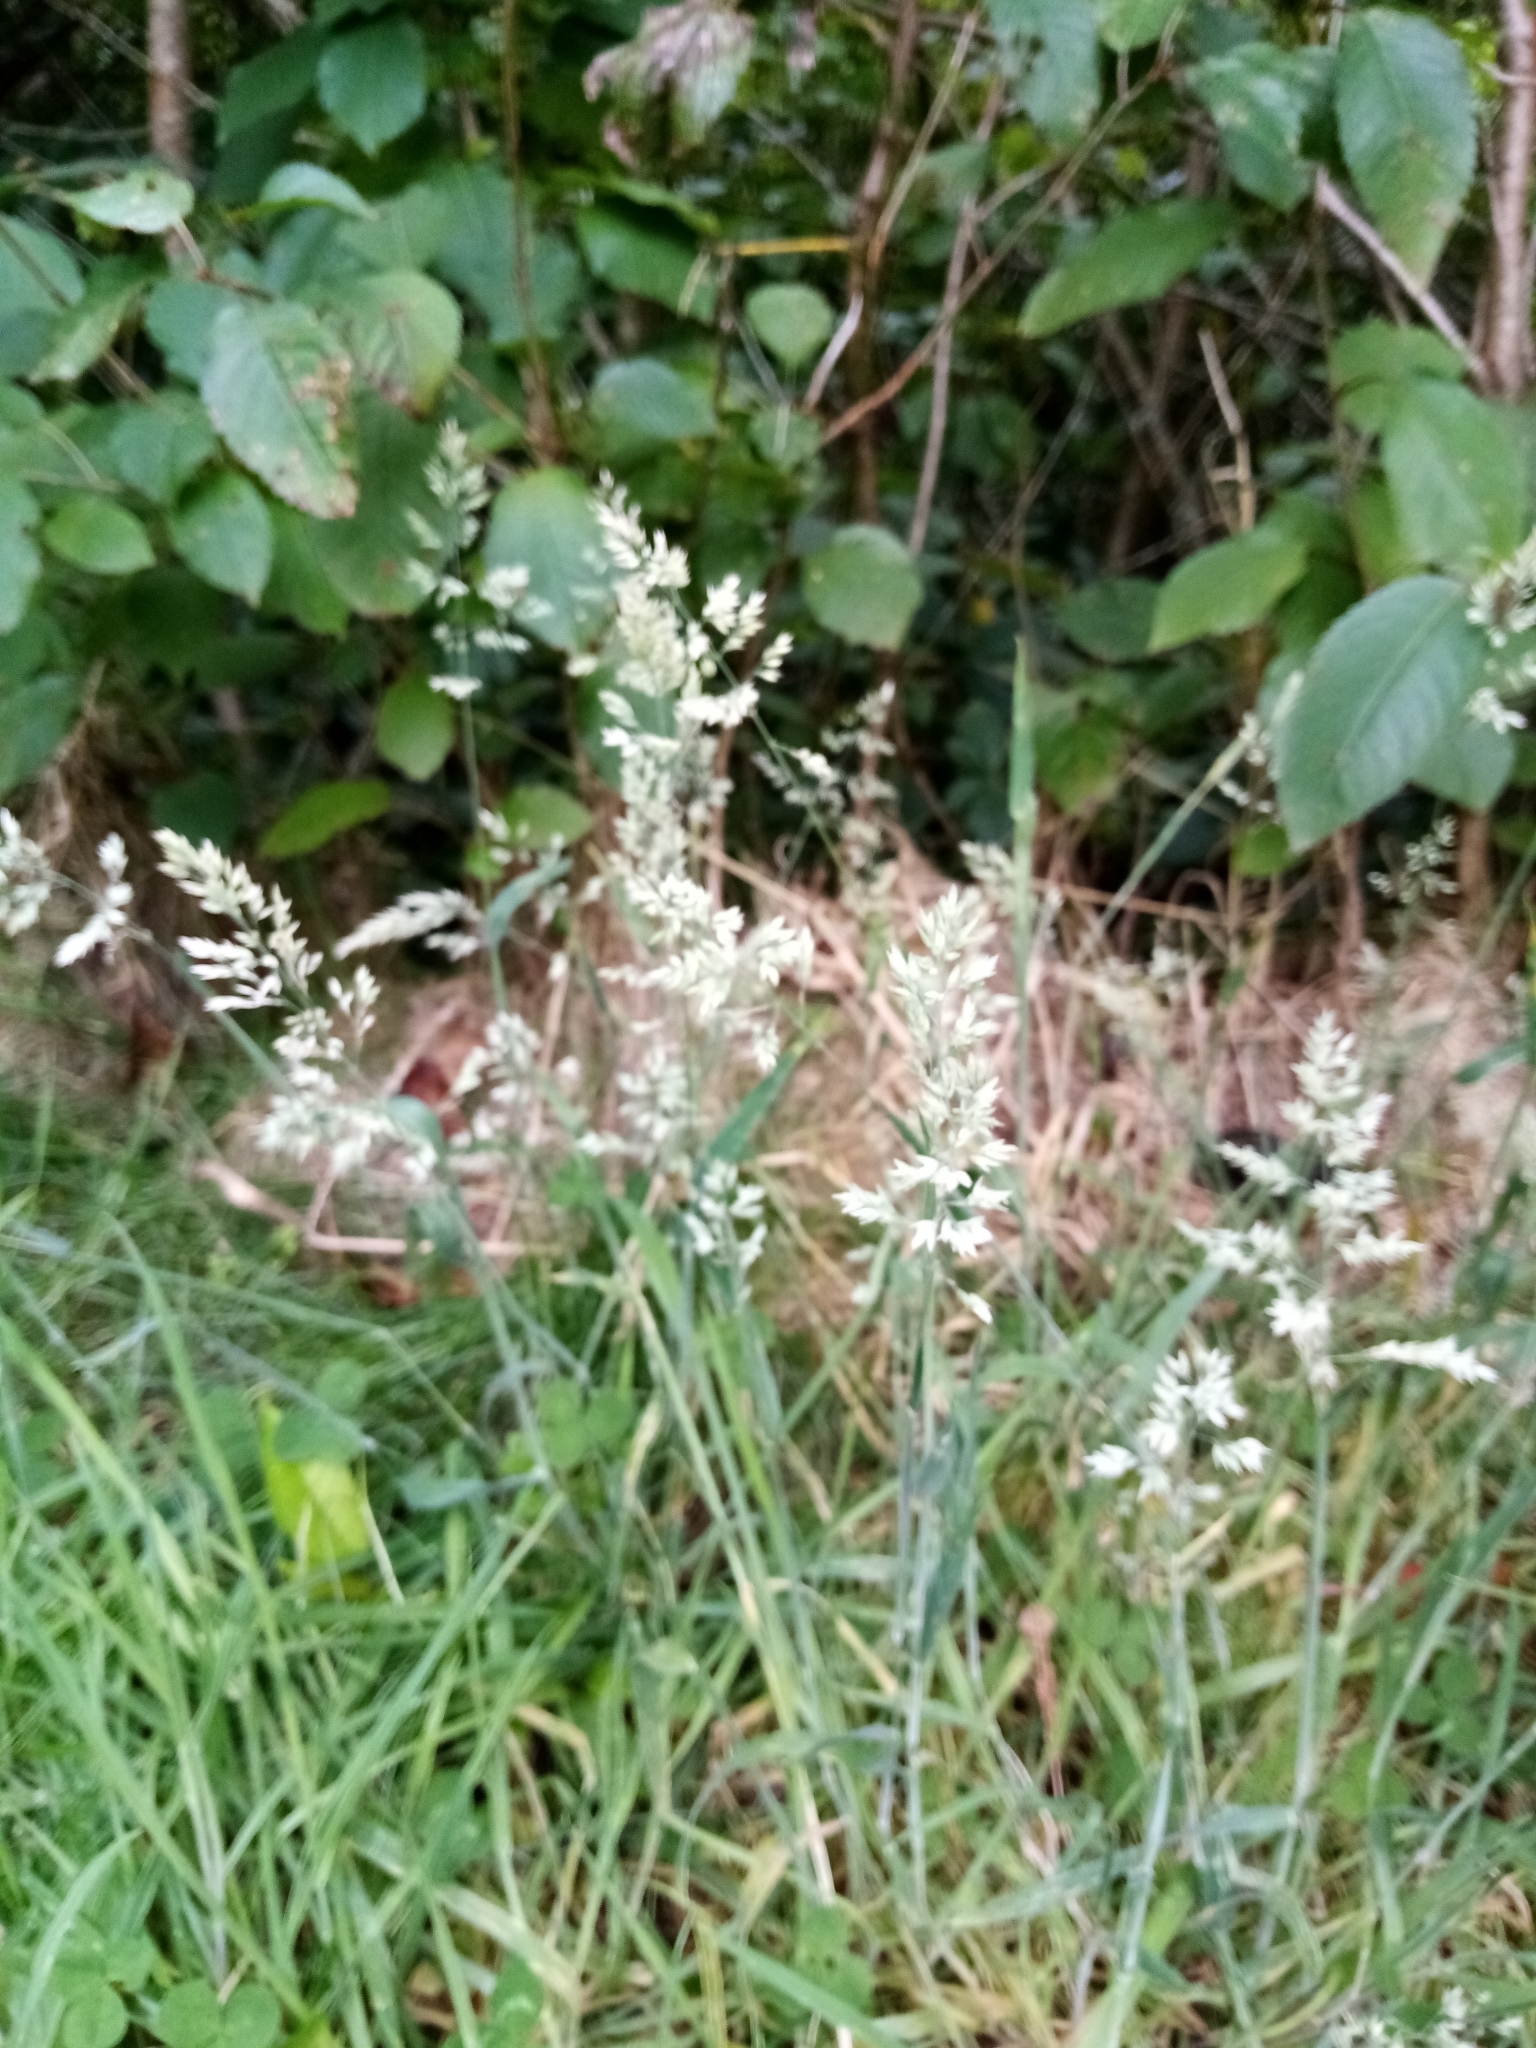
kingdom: Plantae
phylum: Tracheophyta
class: Liliopsida
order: Poales
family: Poaceae
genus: Holcus
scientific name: Holcus lanatus
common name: Yorkshire-fog
